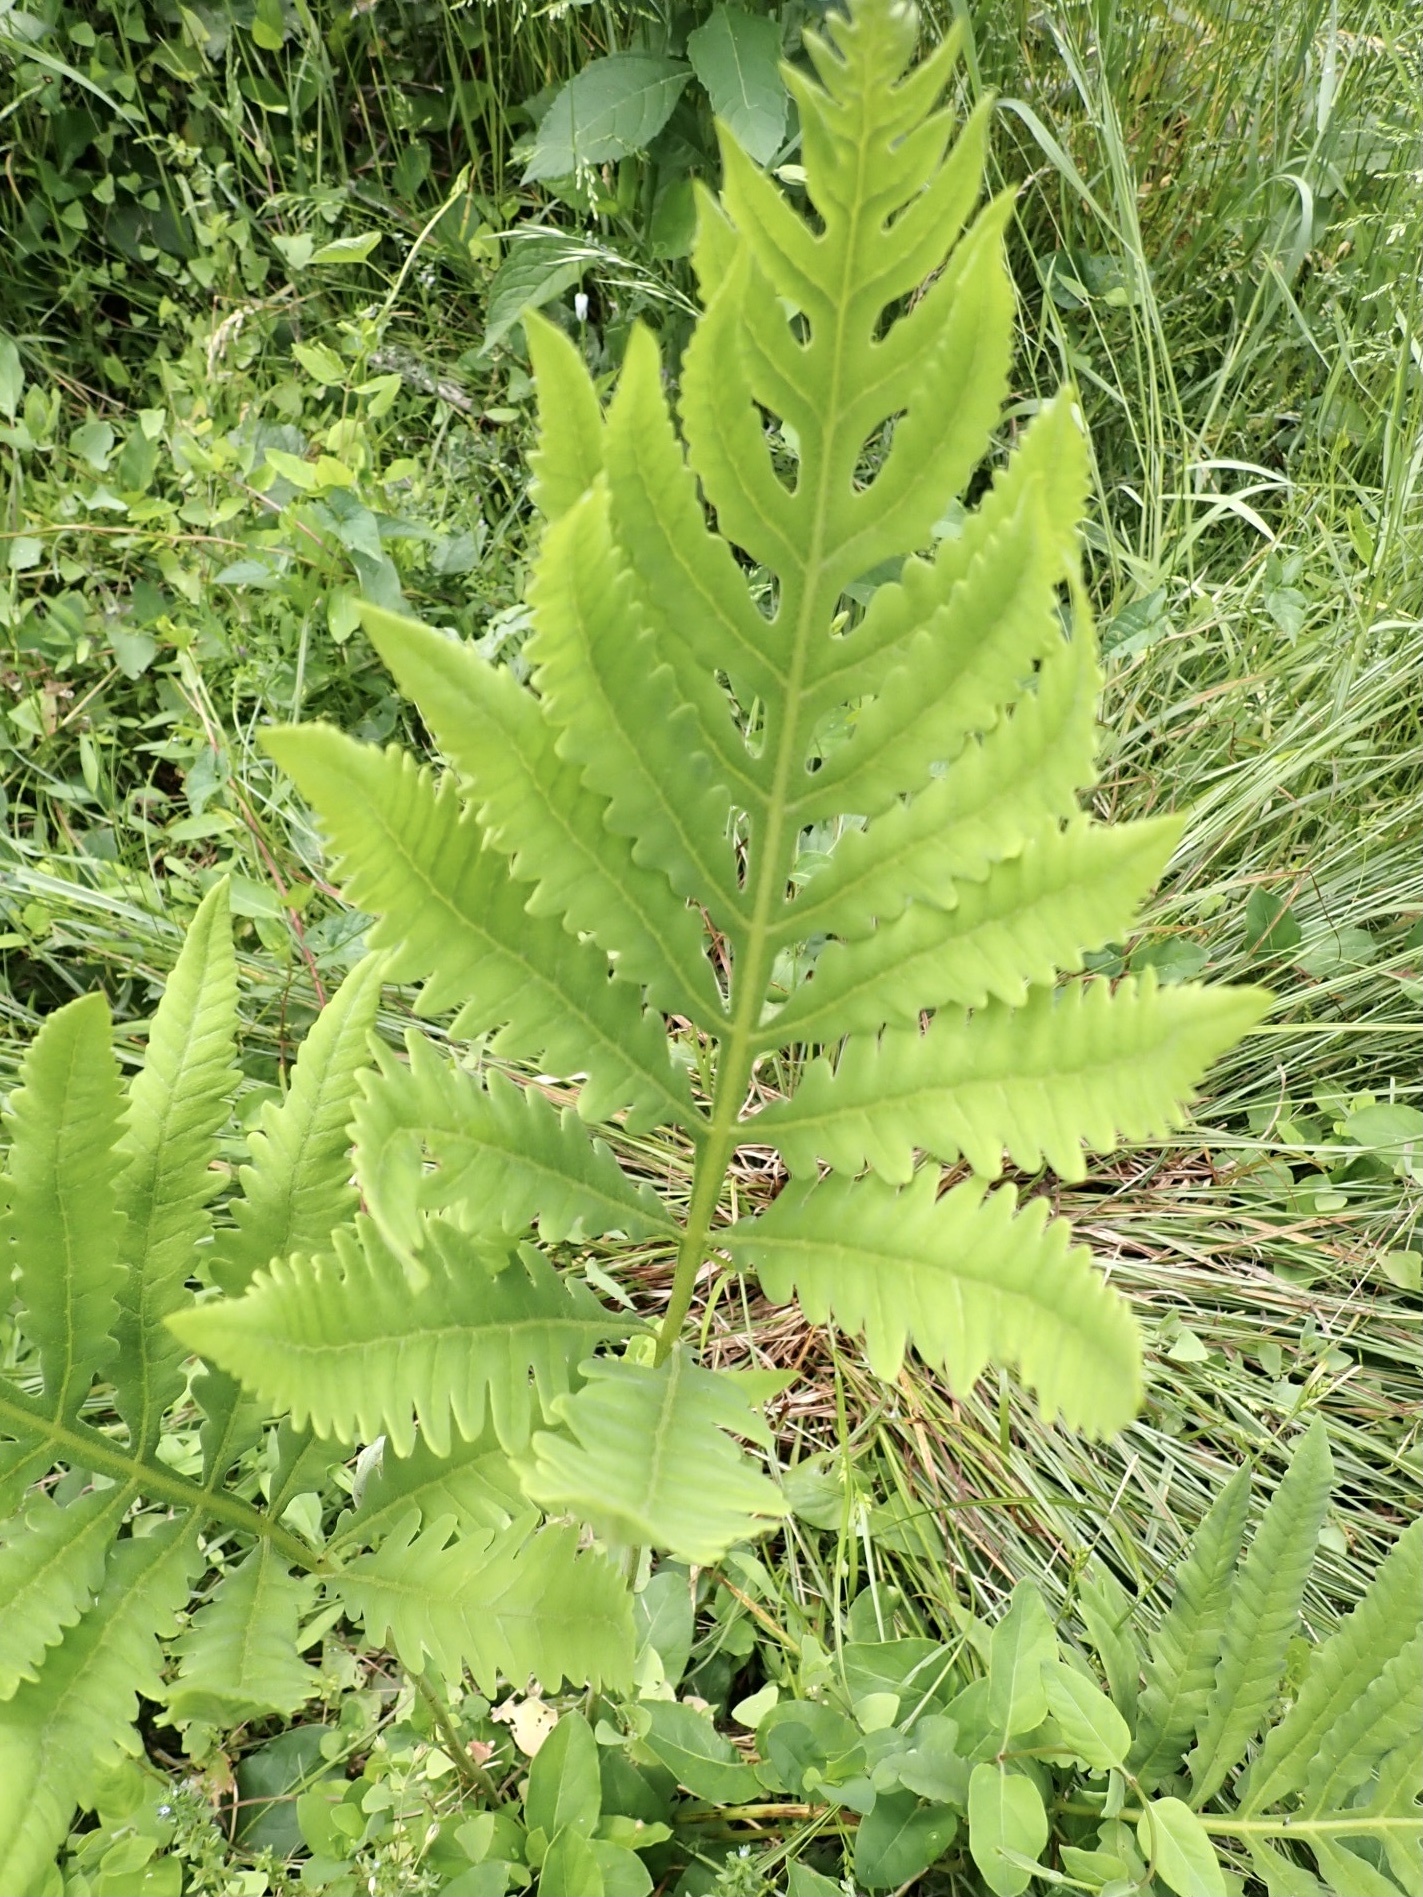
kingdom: Plantae
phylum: Tracheophyta
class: Polypodiopsida
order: Polypodiales
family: Onocleaceae
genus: Onoclea
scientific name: Onoclea sensibilis
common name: Sensitive fern
